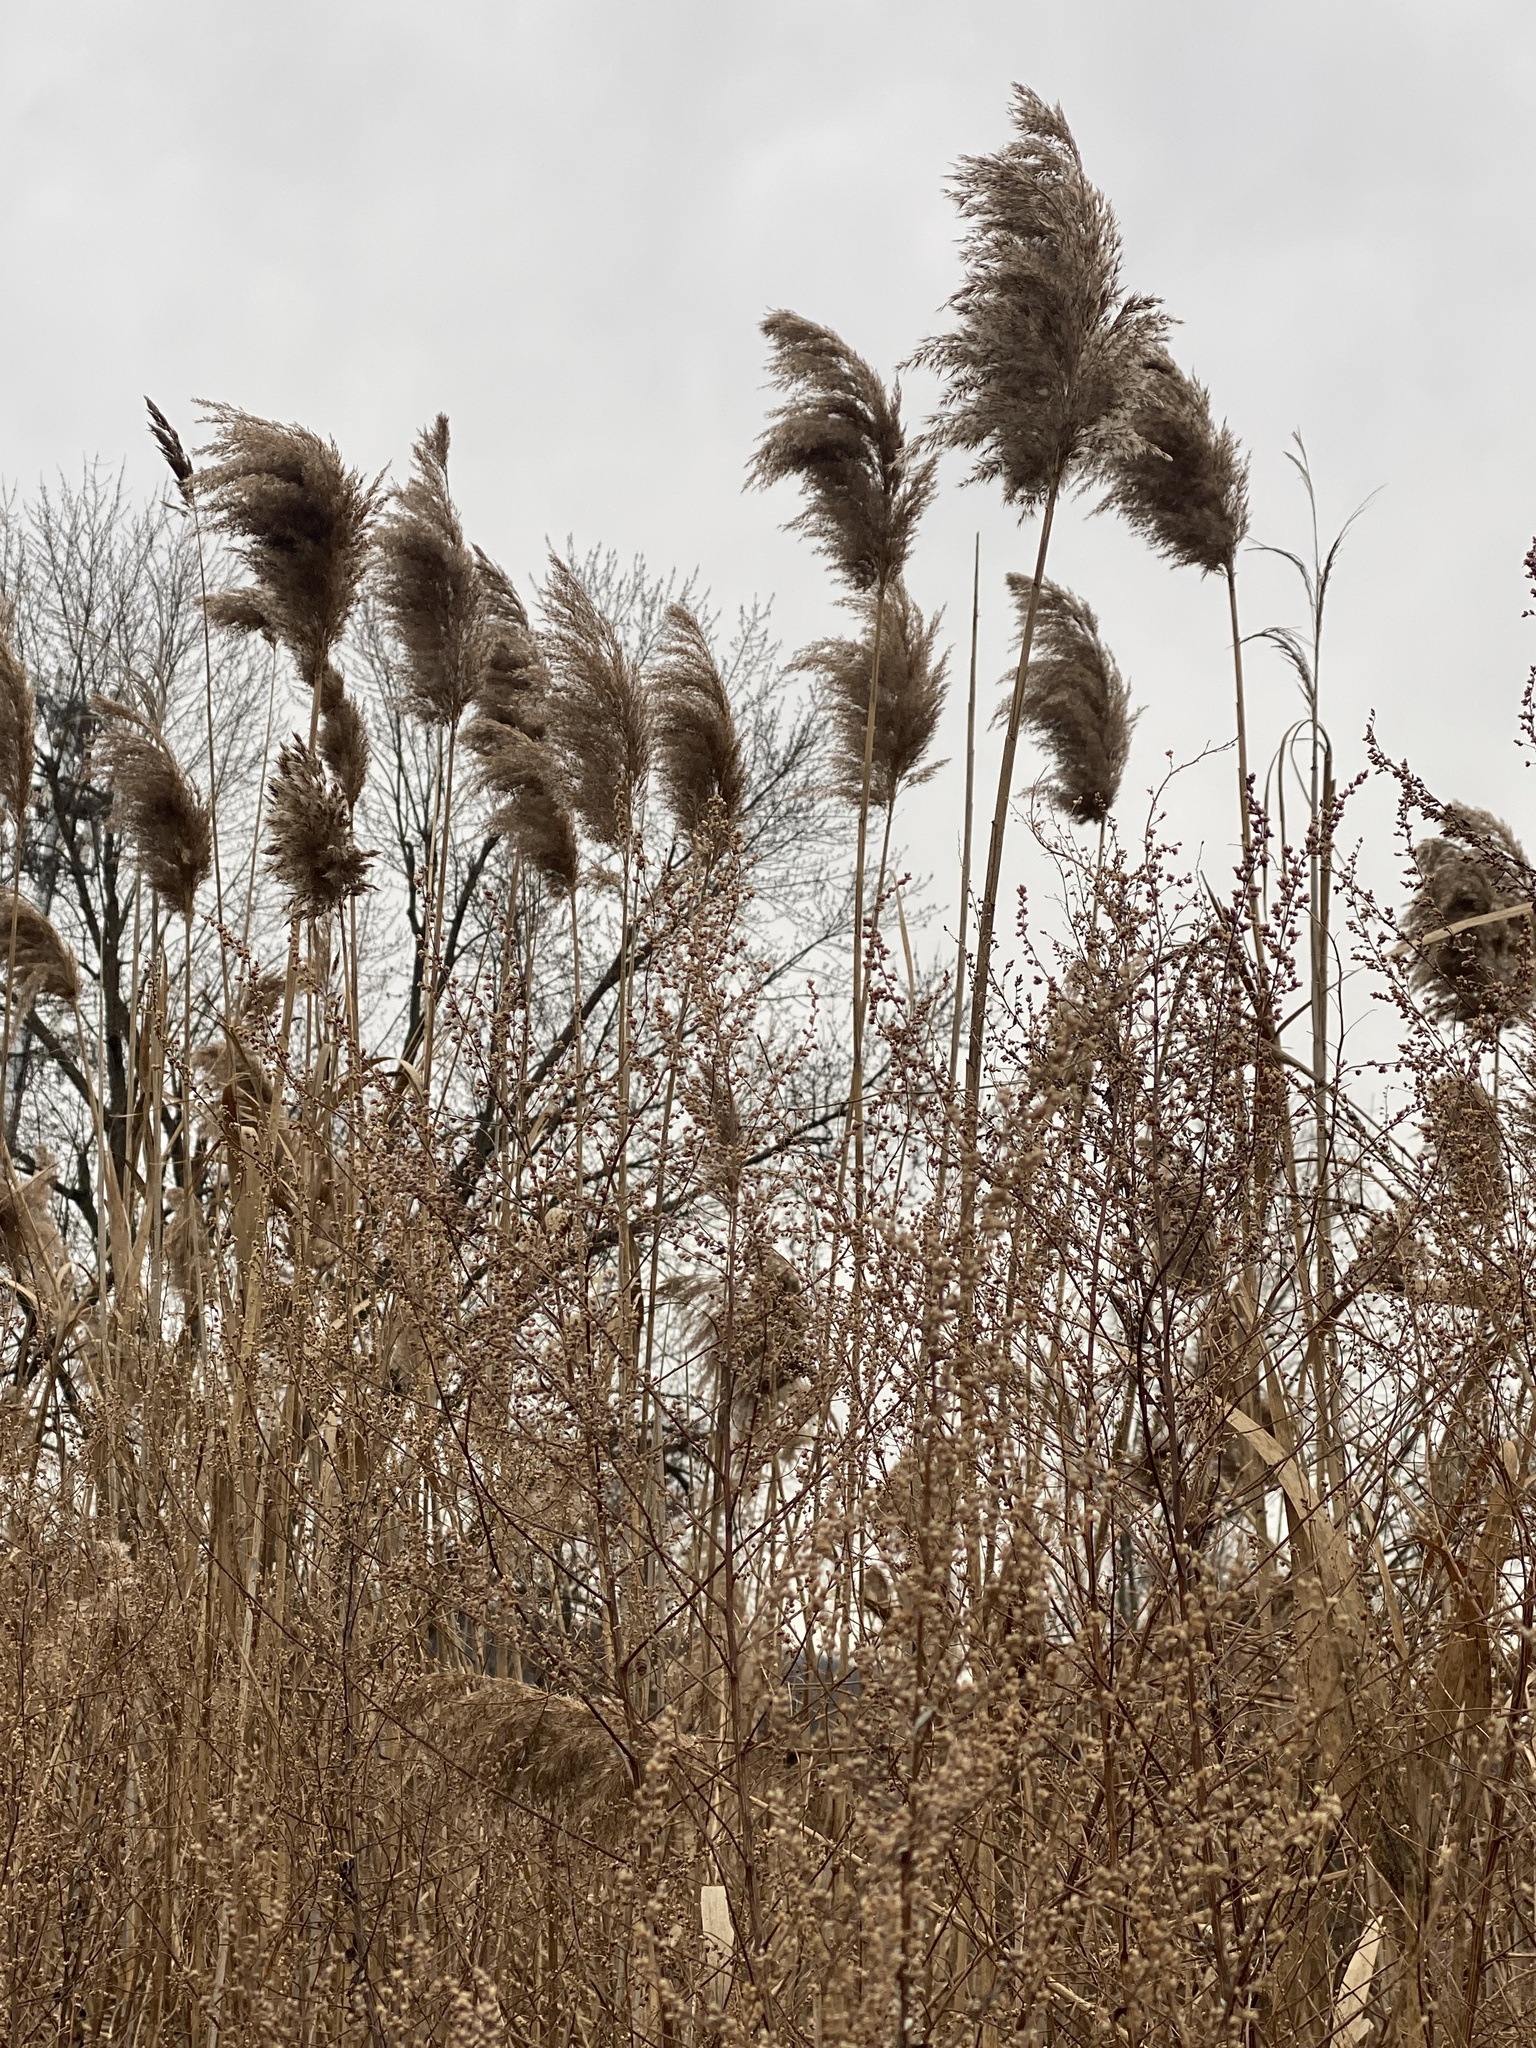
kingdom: Plantae
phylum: Tracheophyta
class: Liliopsida
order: Poales
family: Poaceae
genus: Phragmites
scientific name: Phragmites australis
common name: Common reed
